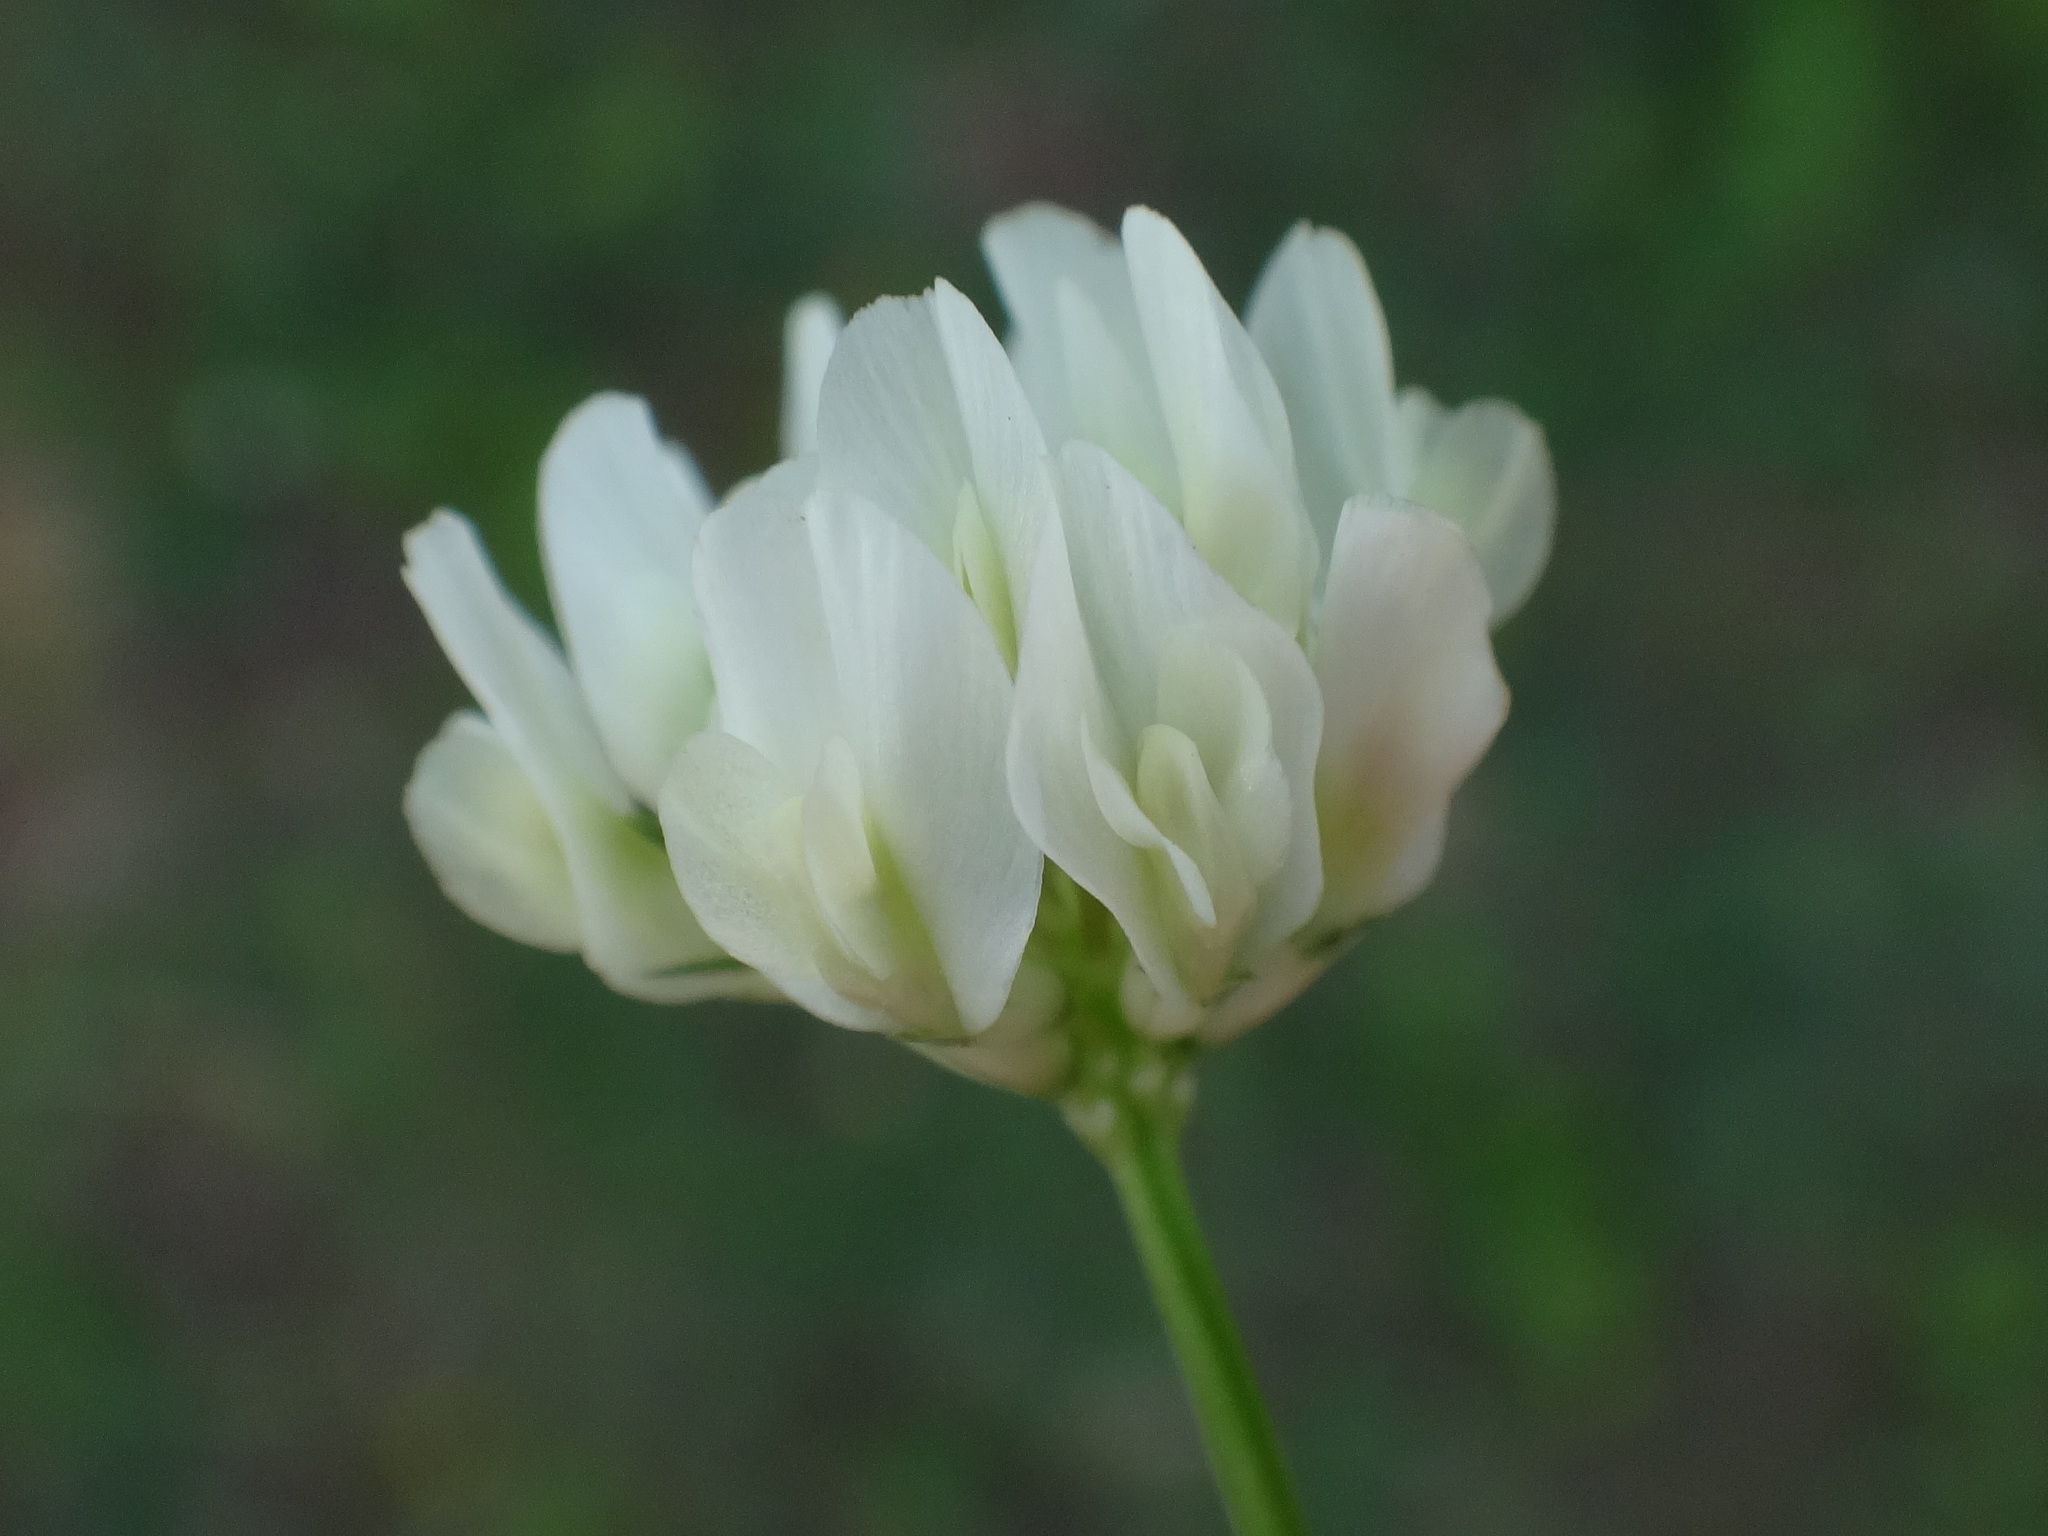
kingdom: Plantae
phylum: Tracheophyta
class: Magnoliopsida
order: Fabales
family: Fabaceae
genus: Trifolium
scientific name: Trifolium nigrescens
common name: Small white clover
